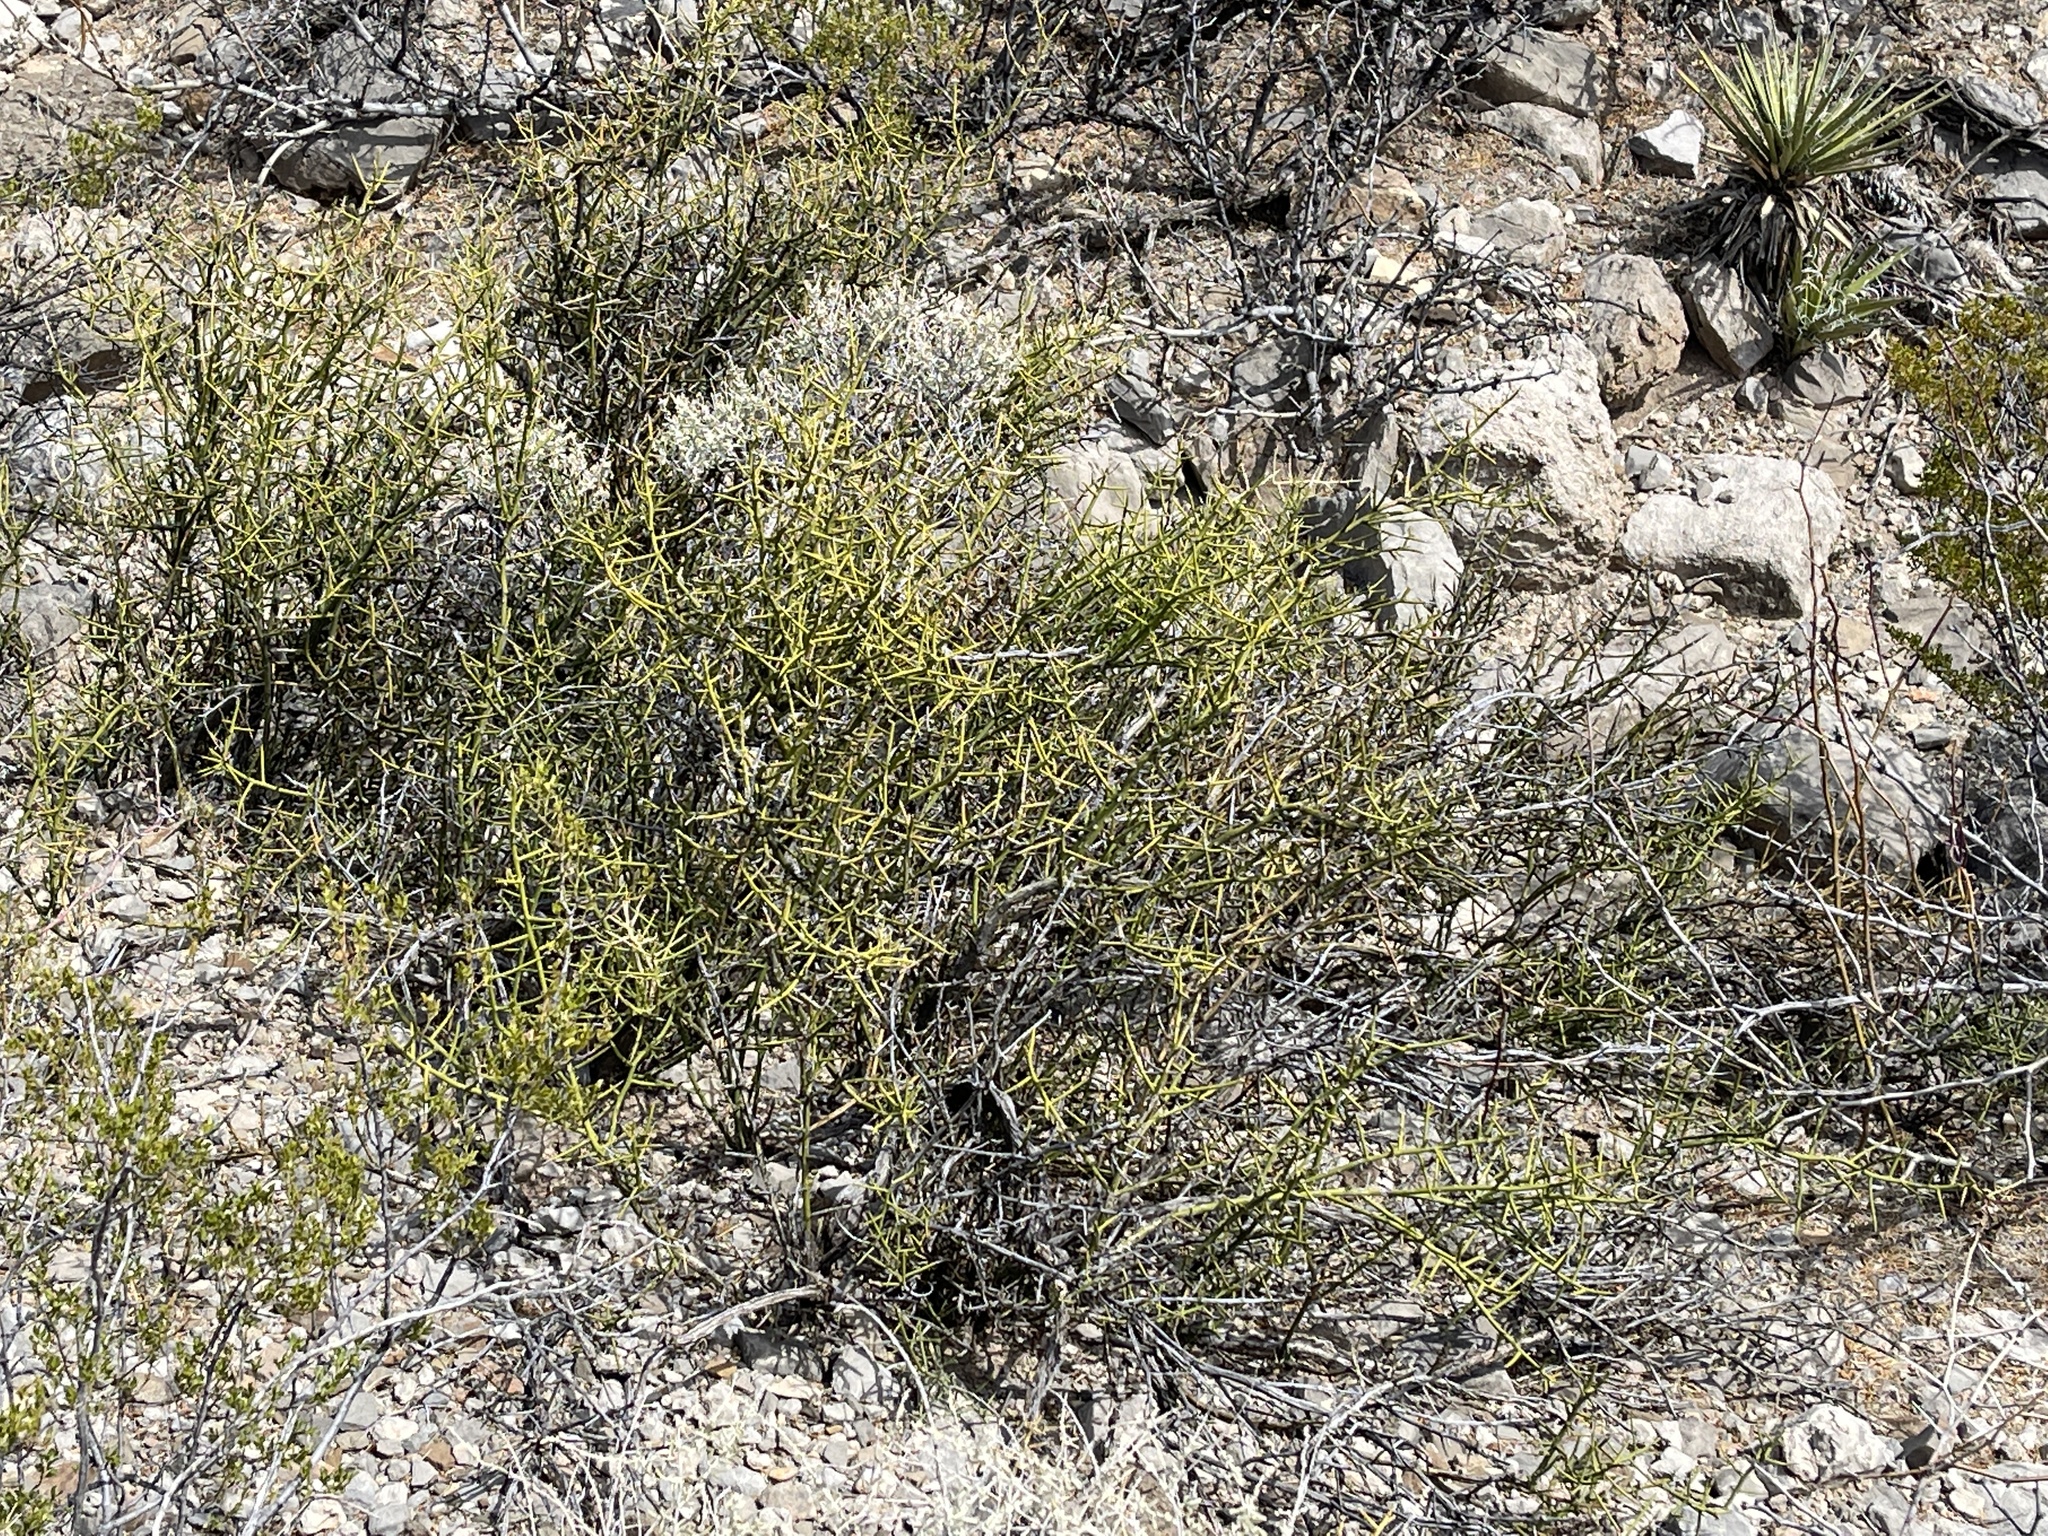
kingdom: Plantae
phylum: Tracheophyta
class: Magnoliopsida
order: Brassicales
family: Koeberliniaceae
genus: Koeberlinia
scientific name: Koeberlinia spinosa
